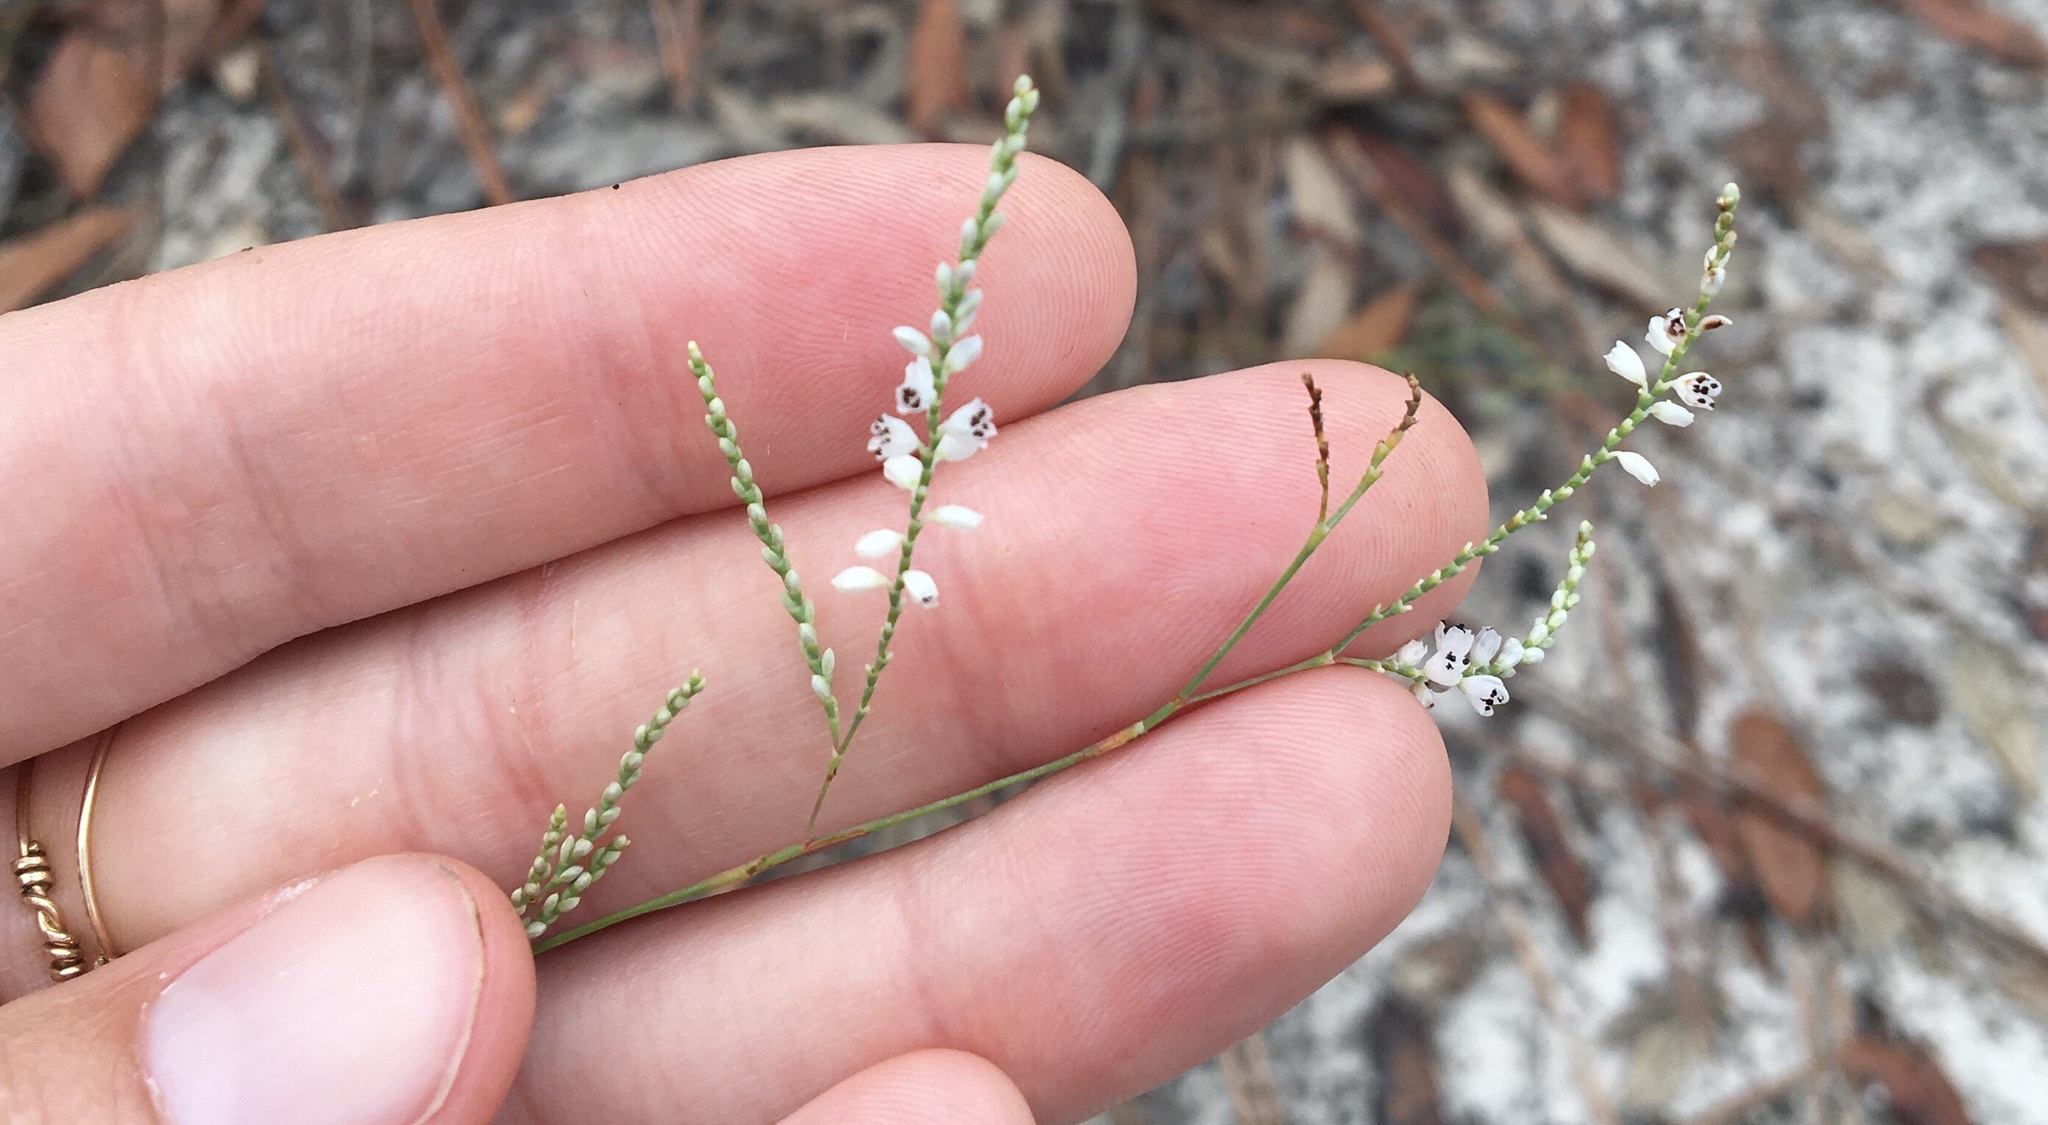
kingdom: Plantae
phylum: Tracheophyta
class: Magnoliopsida
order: Caryophyllales
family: Polygonaceae
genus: Polygonella
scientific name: Polygonella gracilis
